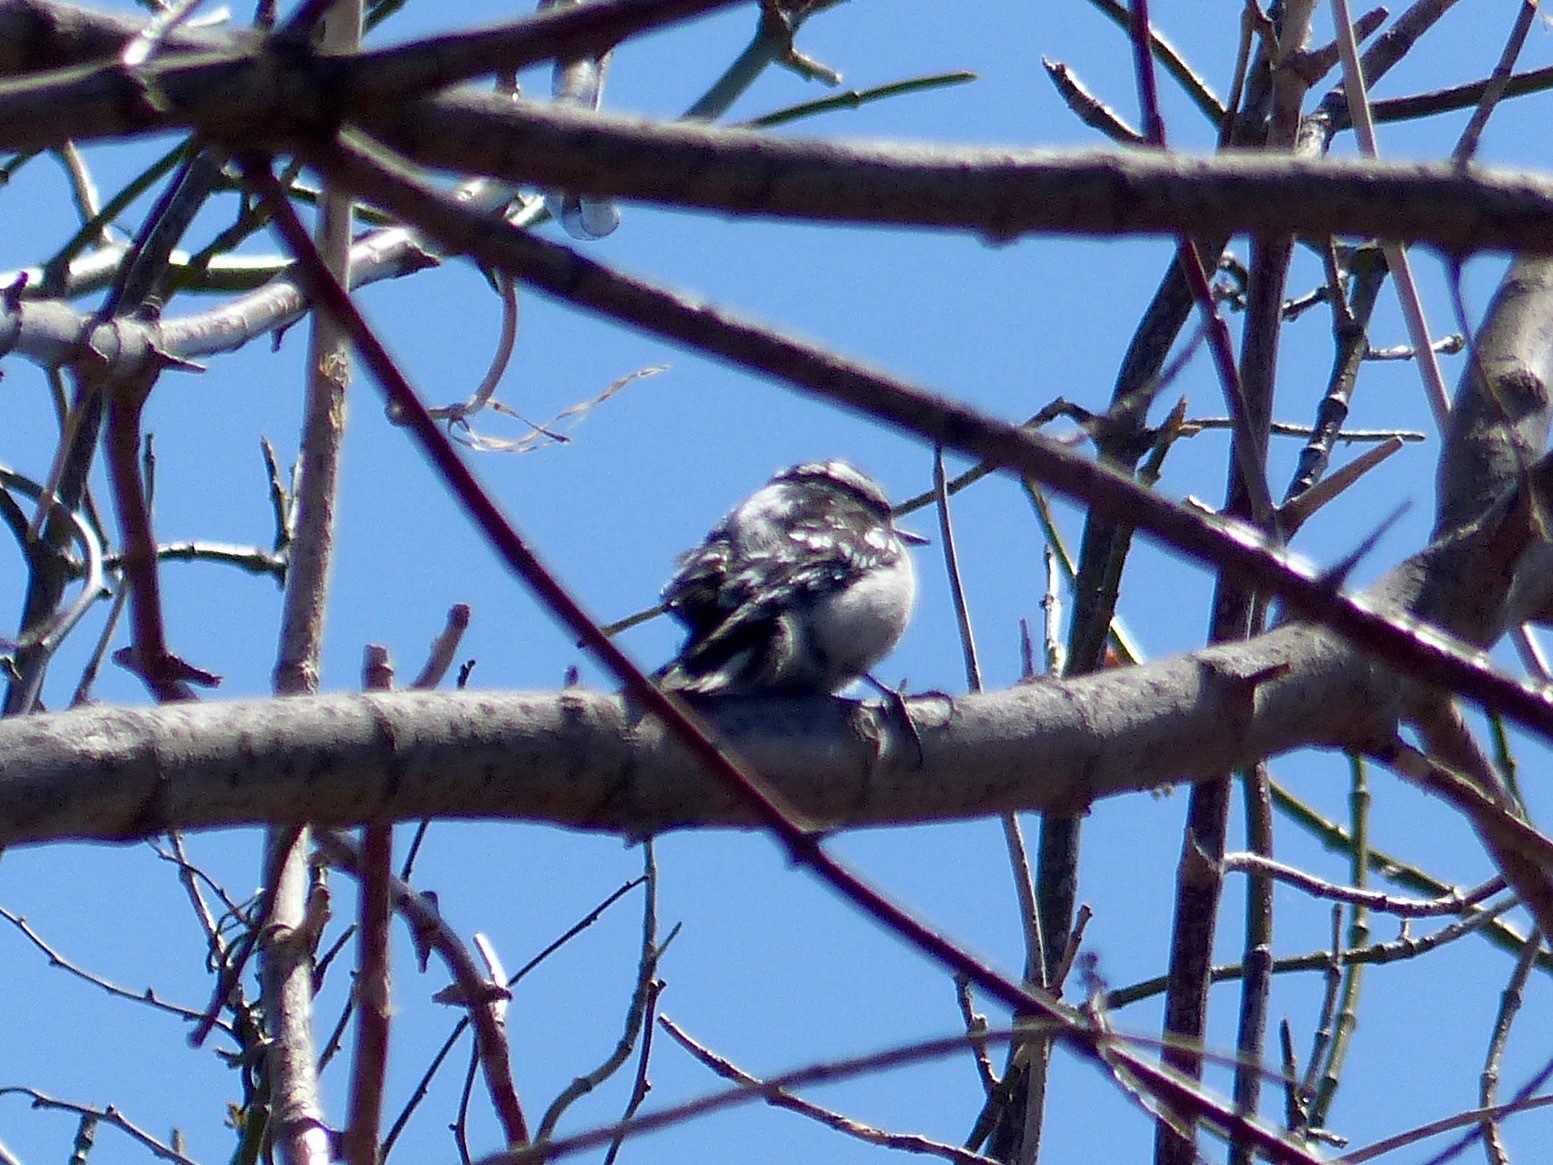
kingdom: Animalia
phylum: Chordata
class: Aves
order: Piciformes
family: Picidae
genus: Dryobates
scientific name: Dryobates pubescens
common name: Downy woodpecker
